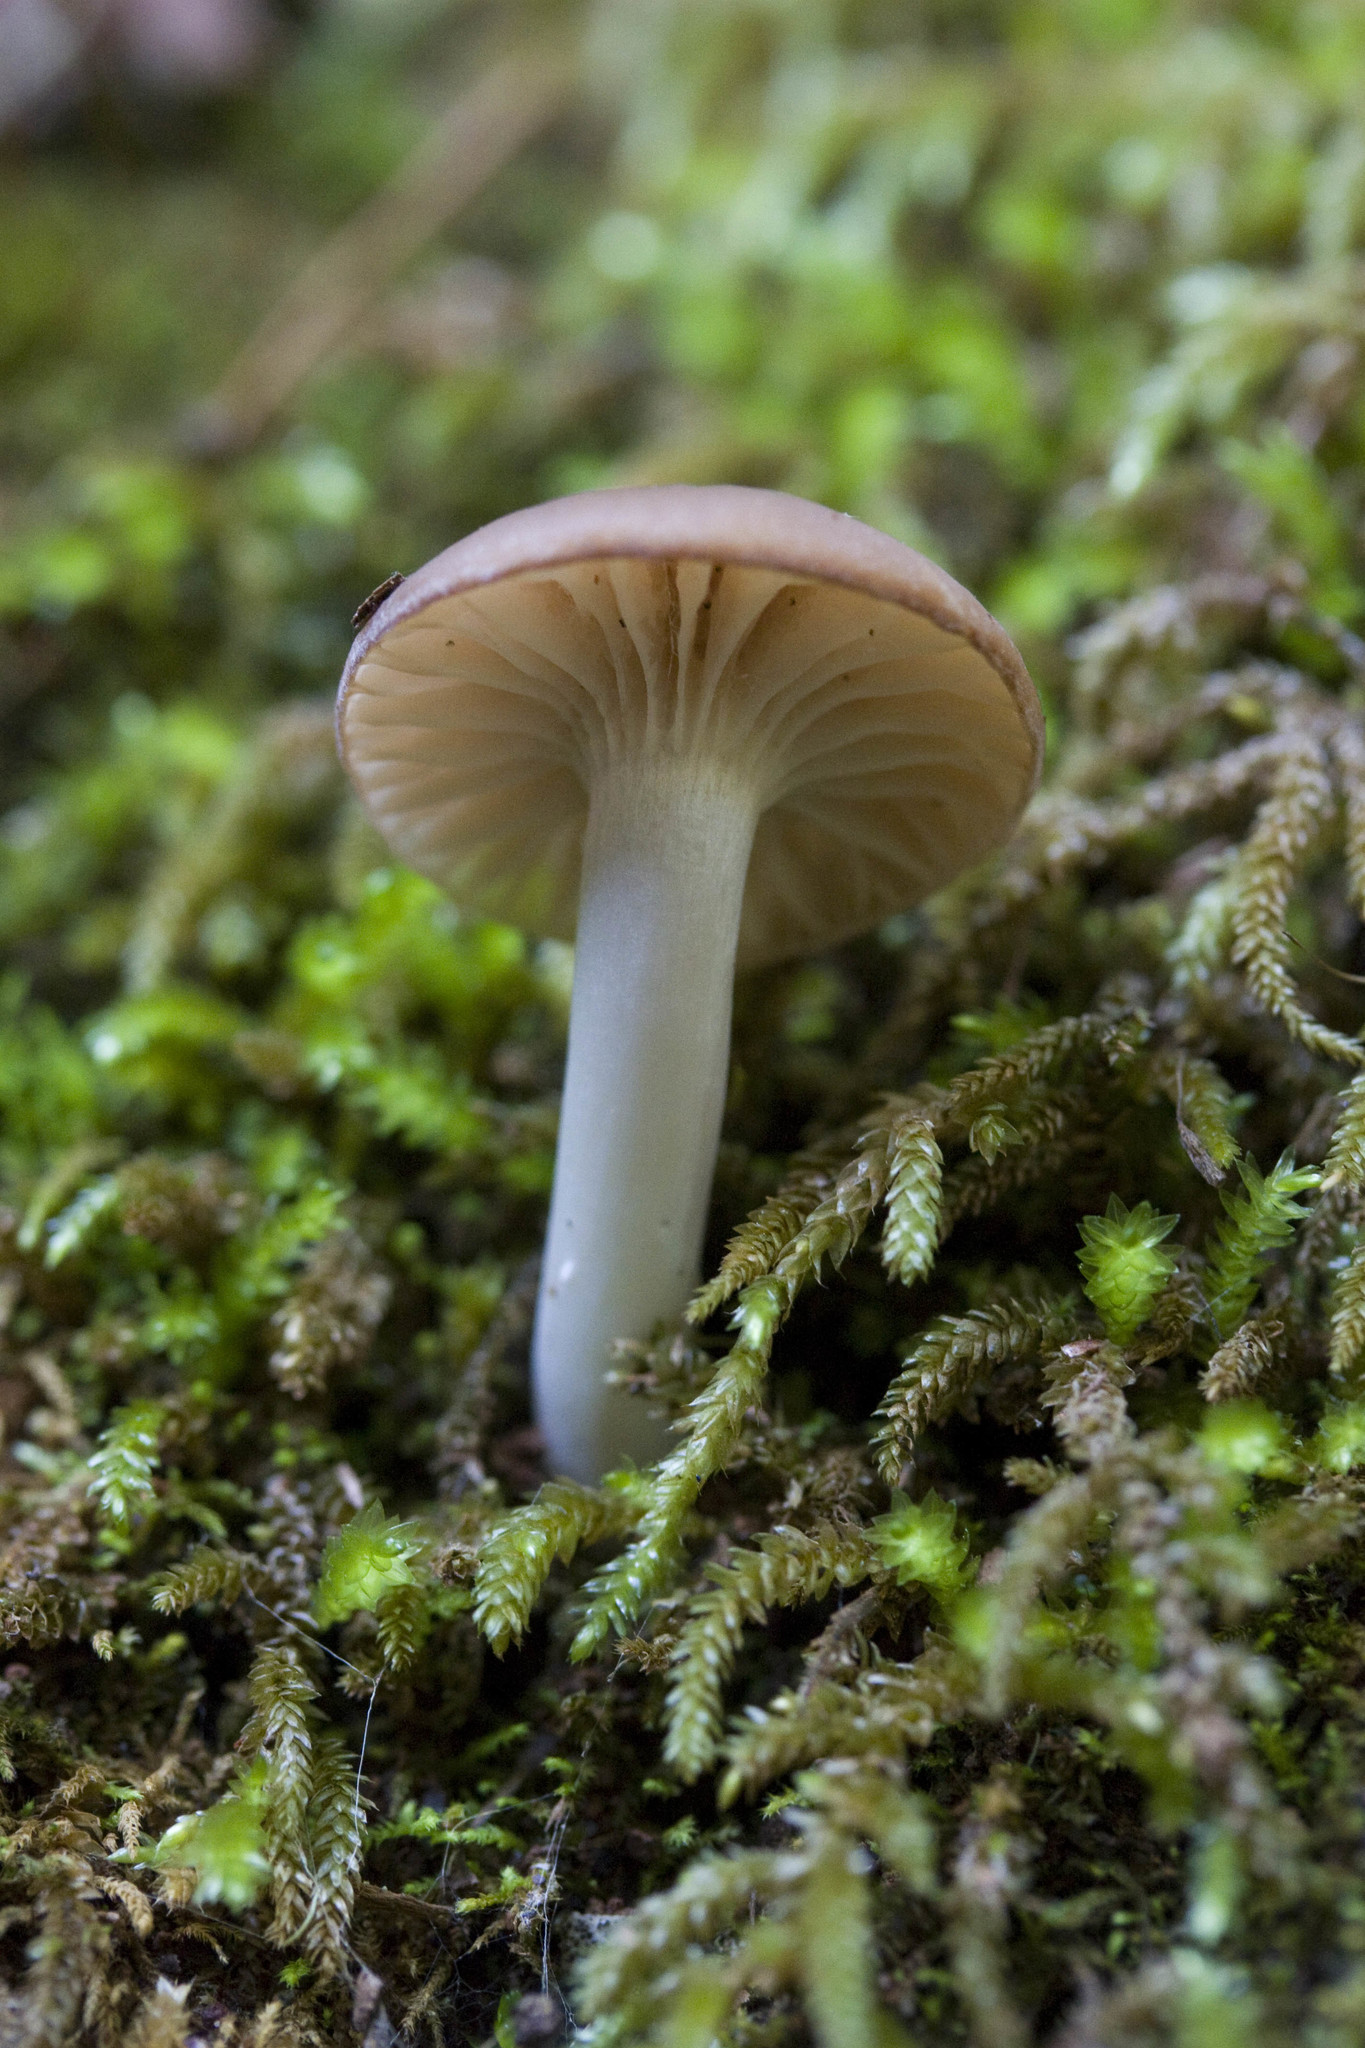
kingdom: Fungi
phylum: Basidiomycota
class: Agaricomycetes
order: Agaricales
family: Hygrophoraceae
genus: Cuphophyllus
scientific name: Cuphophyllus colemannianus
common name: Toasted waxcap
